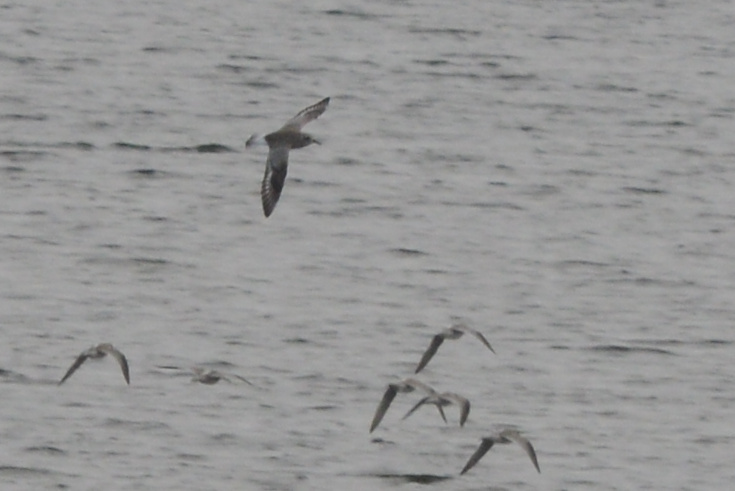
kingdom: Animalia
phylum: Chordata
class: Aves
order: Charadriiformes
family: Charadriidae
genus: Pluvialis
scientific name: Pluvialis squatarola
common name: Grey plover
